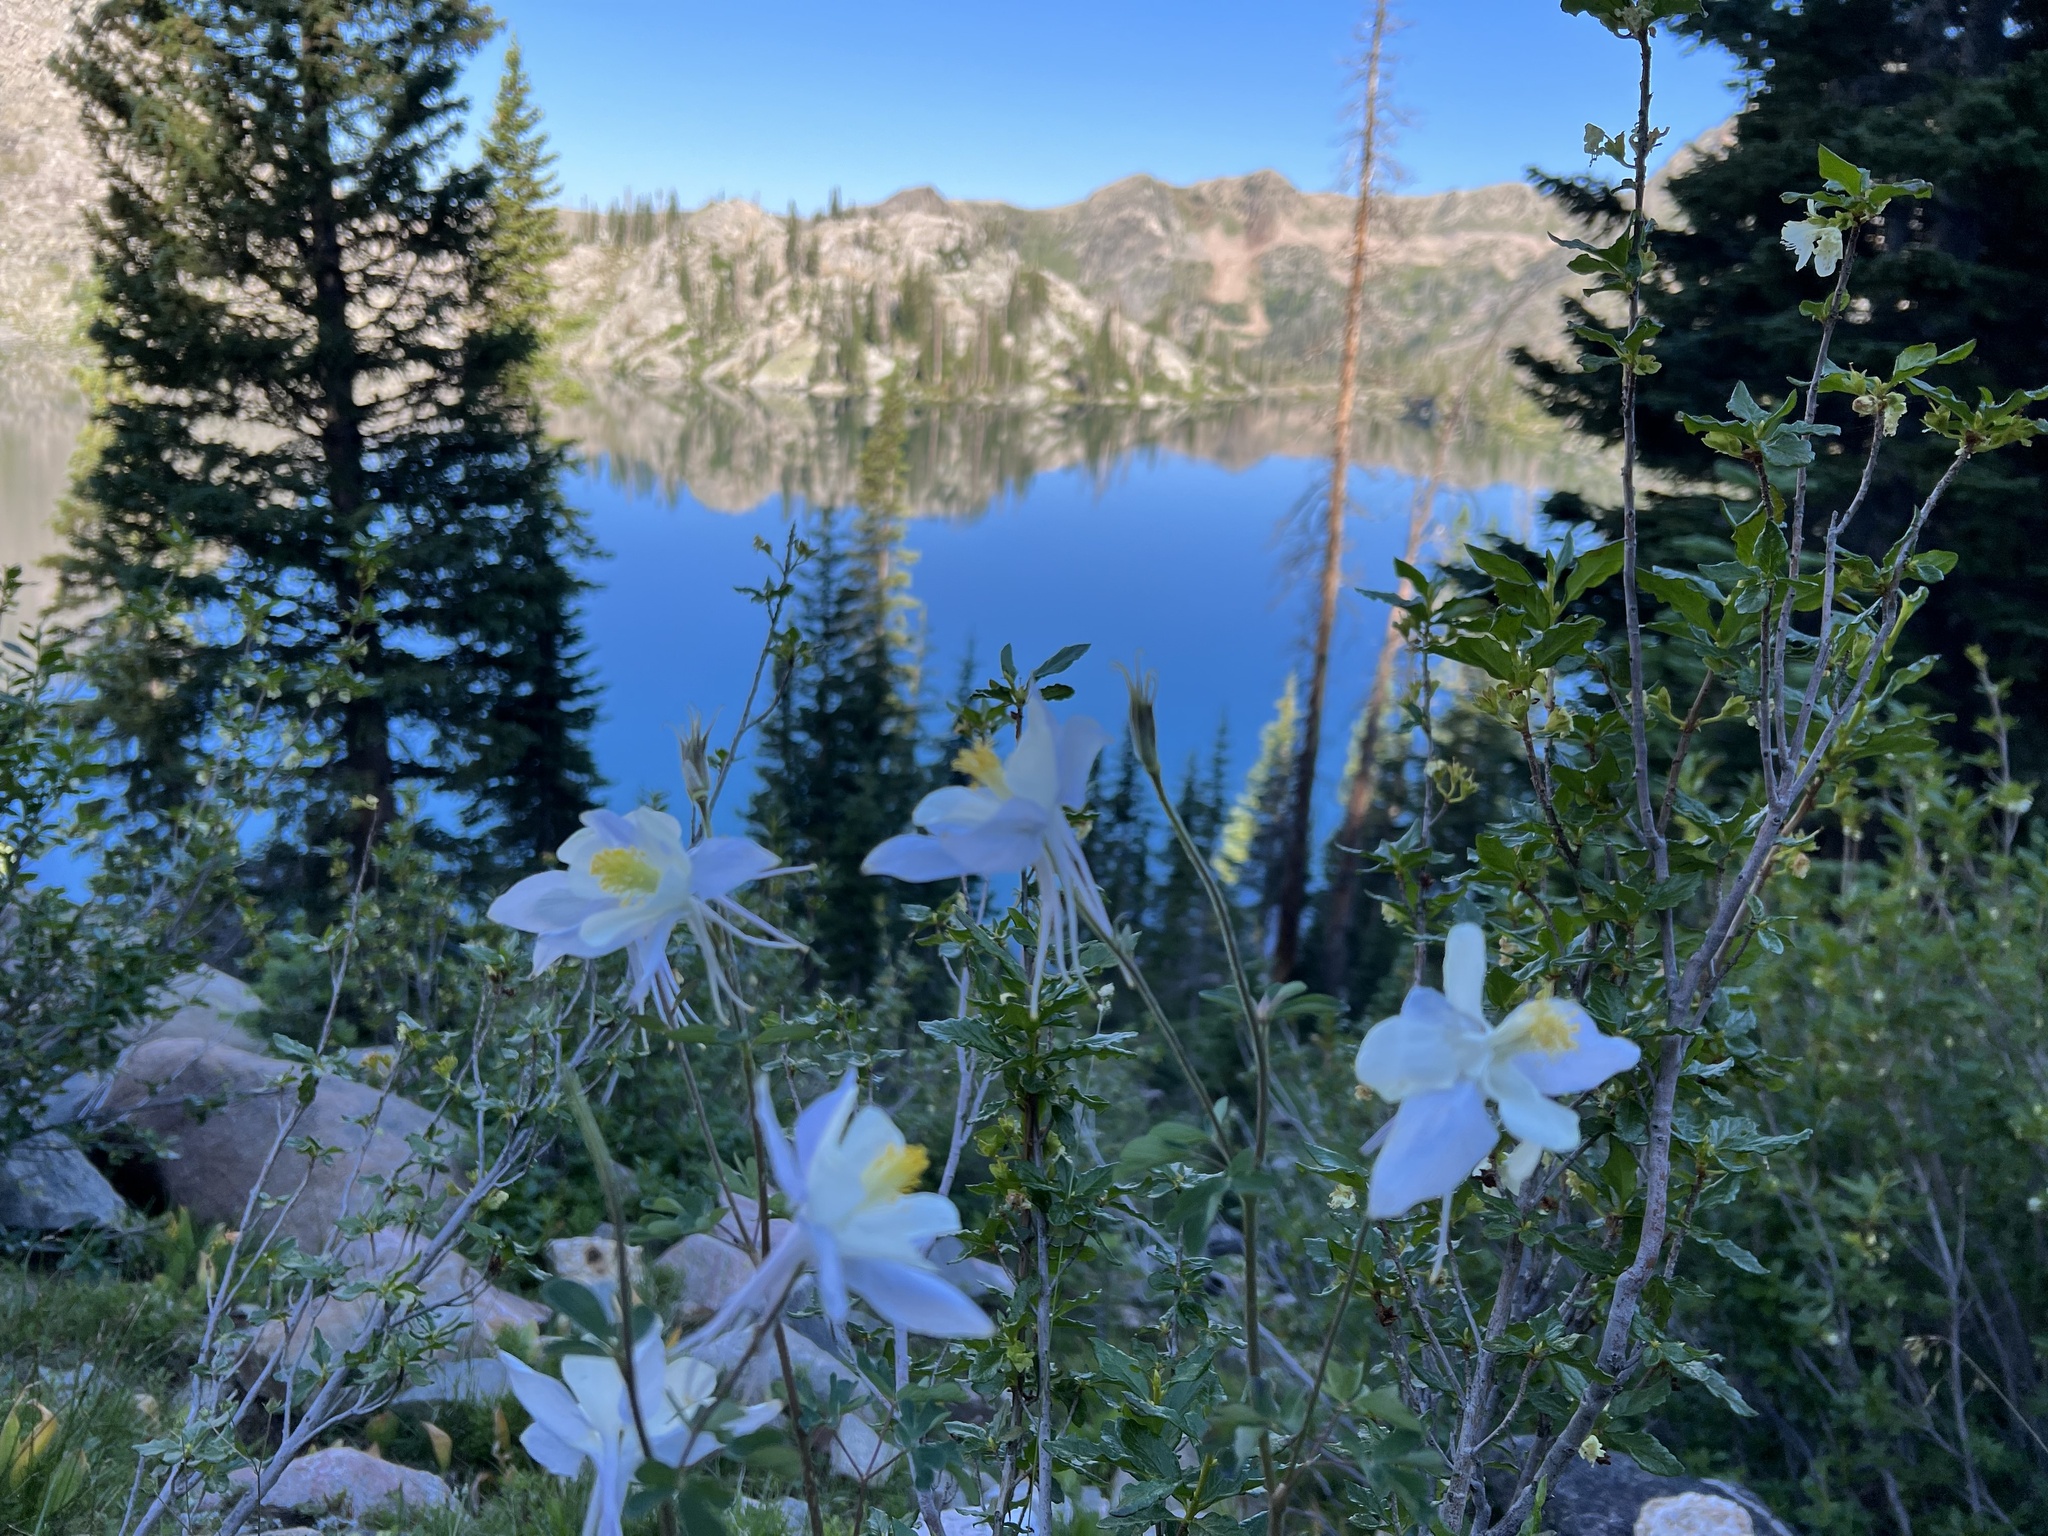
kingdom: Plantae
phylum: Tracheophyta
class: Magnoliopsida
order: Ranunculales
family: Ranunculaceae
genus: Aquilegia
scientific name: Aquilegia coerulea
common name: Rocky mountain columbine
